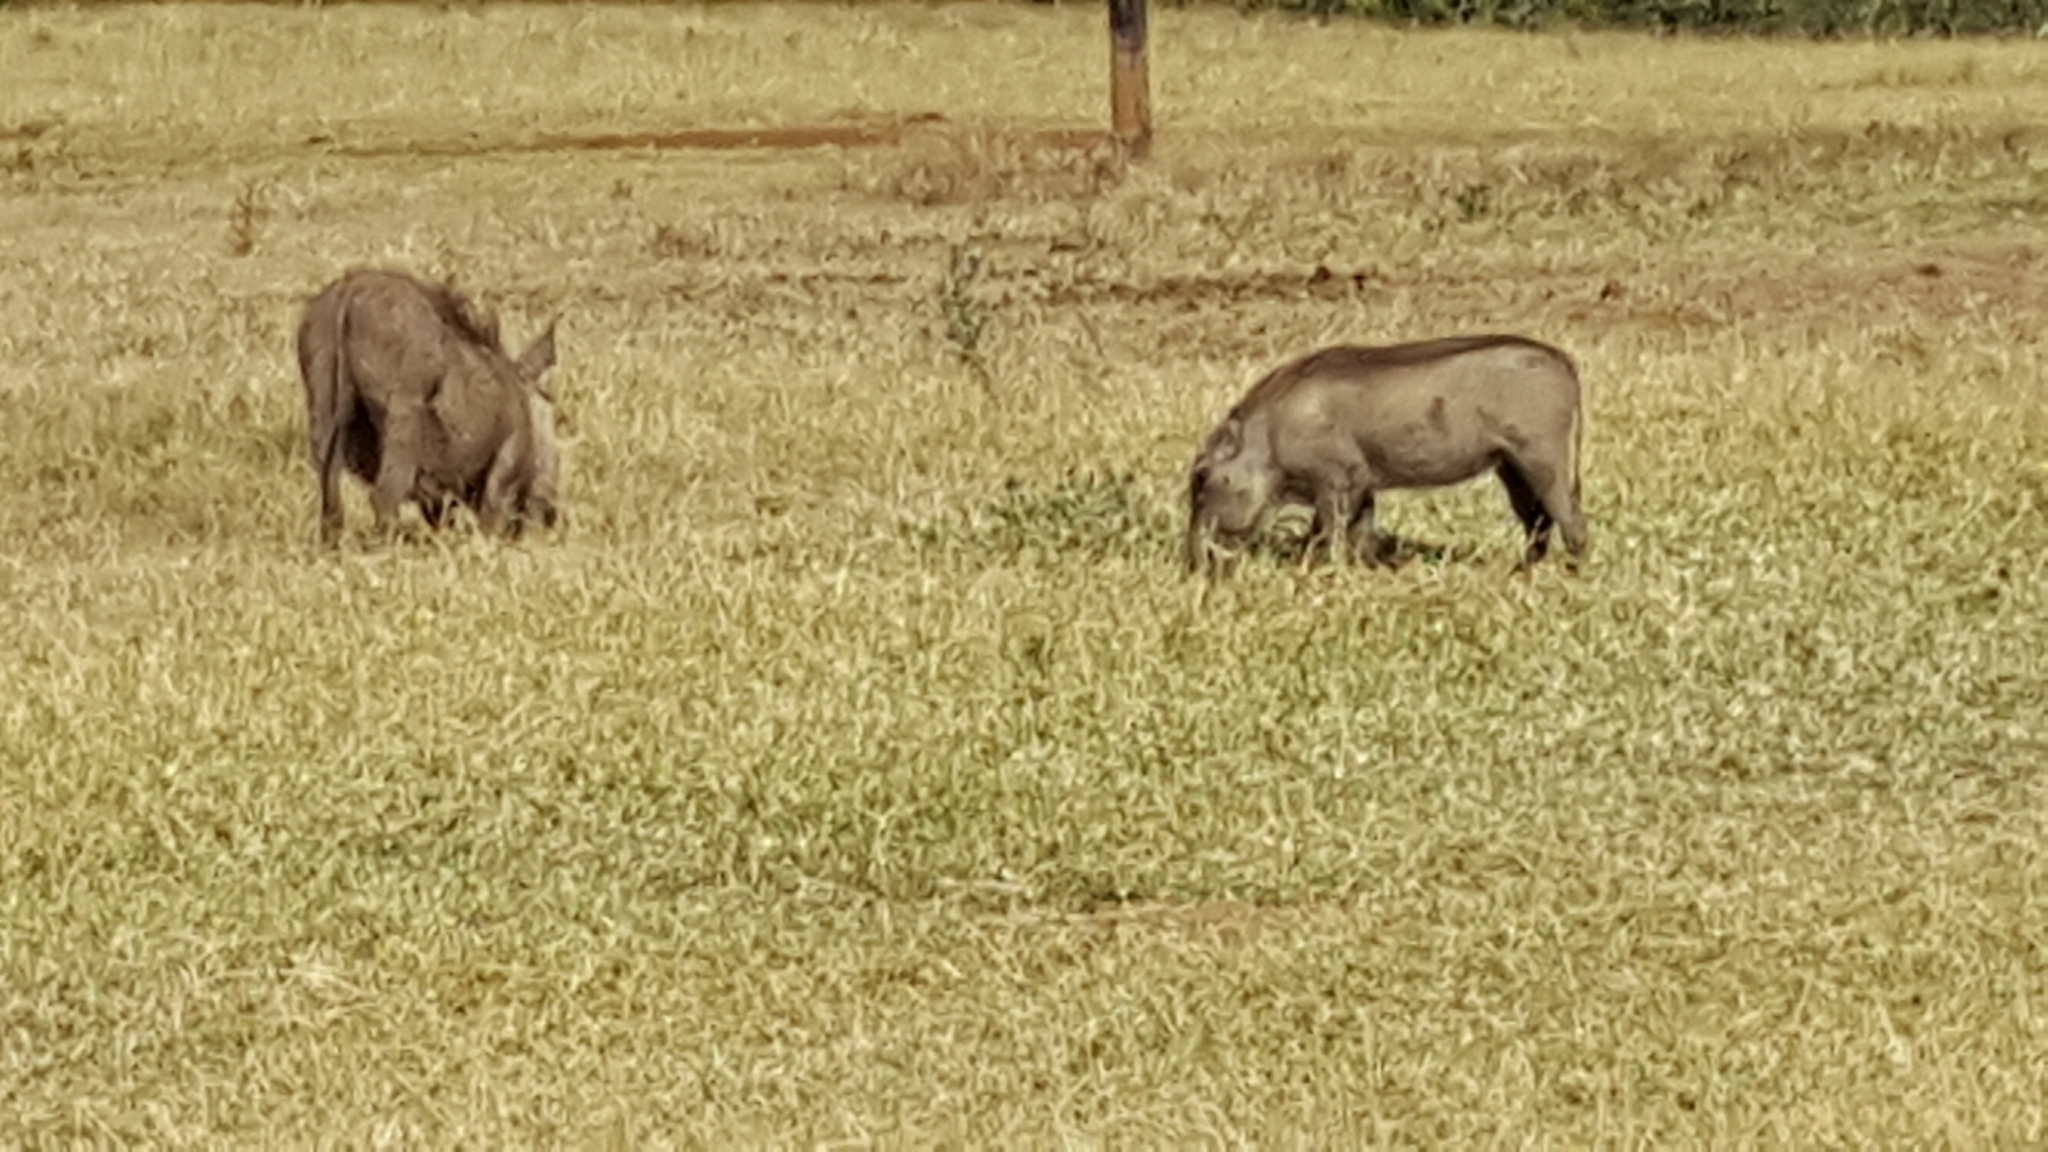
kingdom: Animalia
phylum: Chordata
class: Mammalia
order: Artiodactyla
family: Suidae
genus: Phacochoerus
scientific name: Phacochoerus africanus
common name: Common warthog
